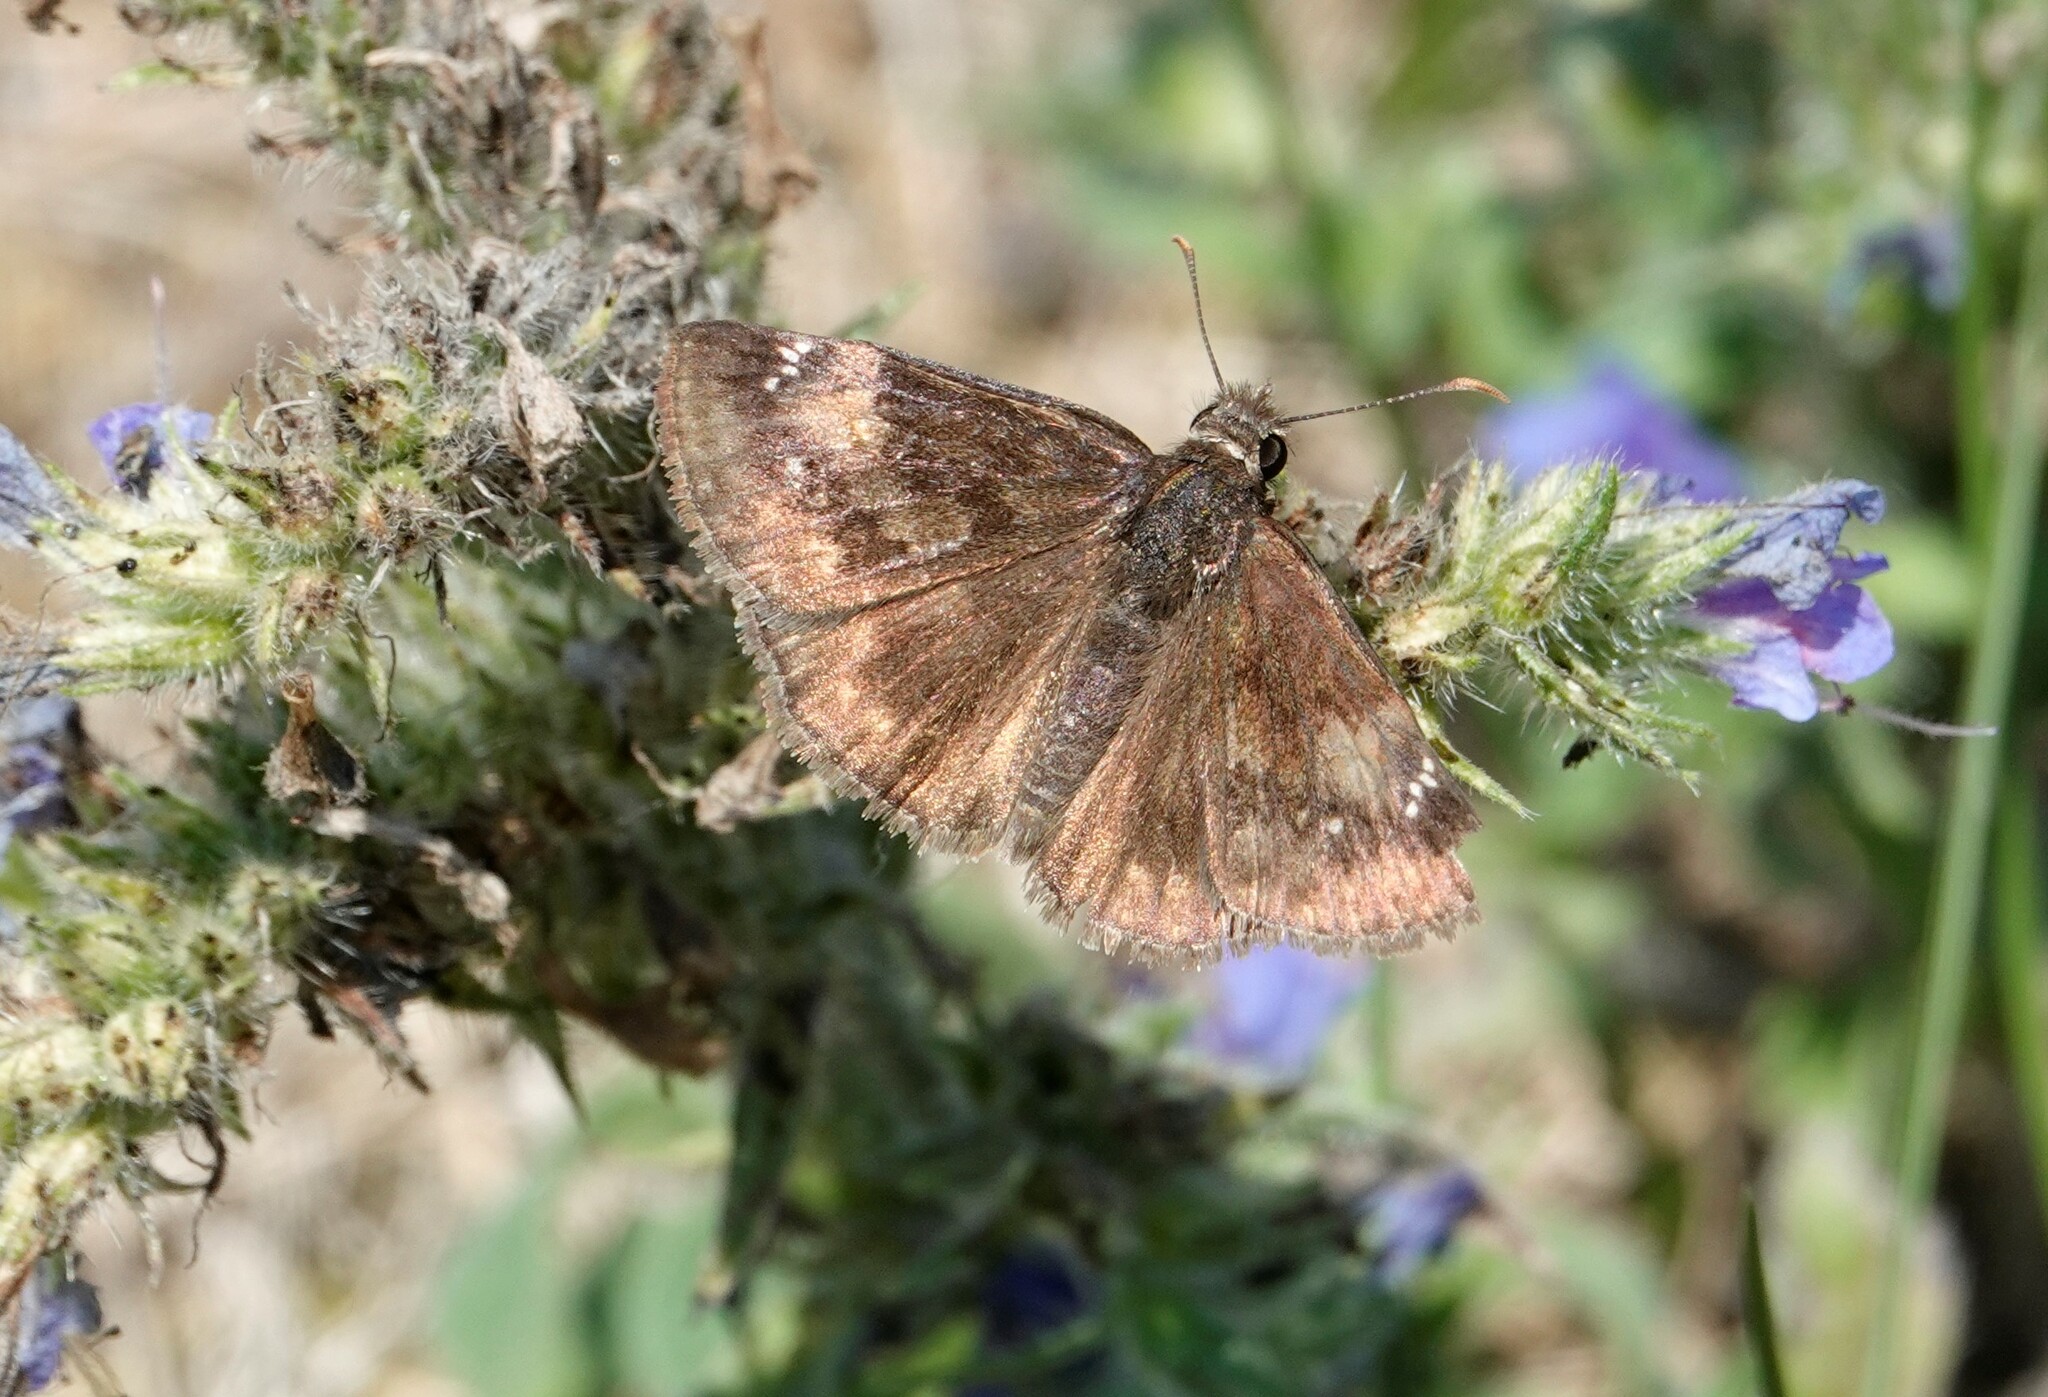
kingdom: Animalia
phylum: Arthropoda
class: Insecta
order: Lepidoptera
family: Hesperiidae
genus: Erynnis
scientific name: Erynnis baptisiae
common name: Wild indigo duskywing
